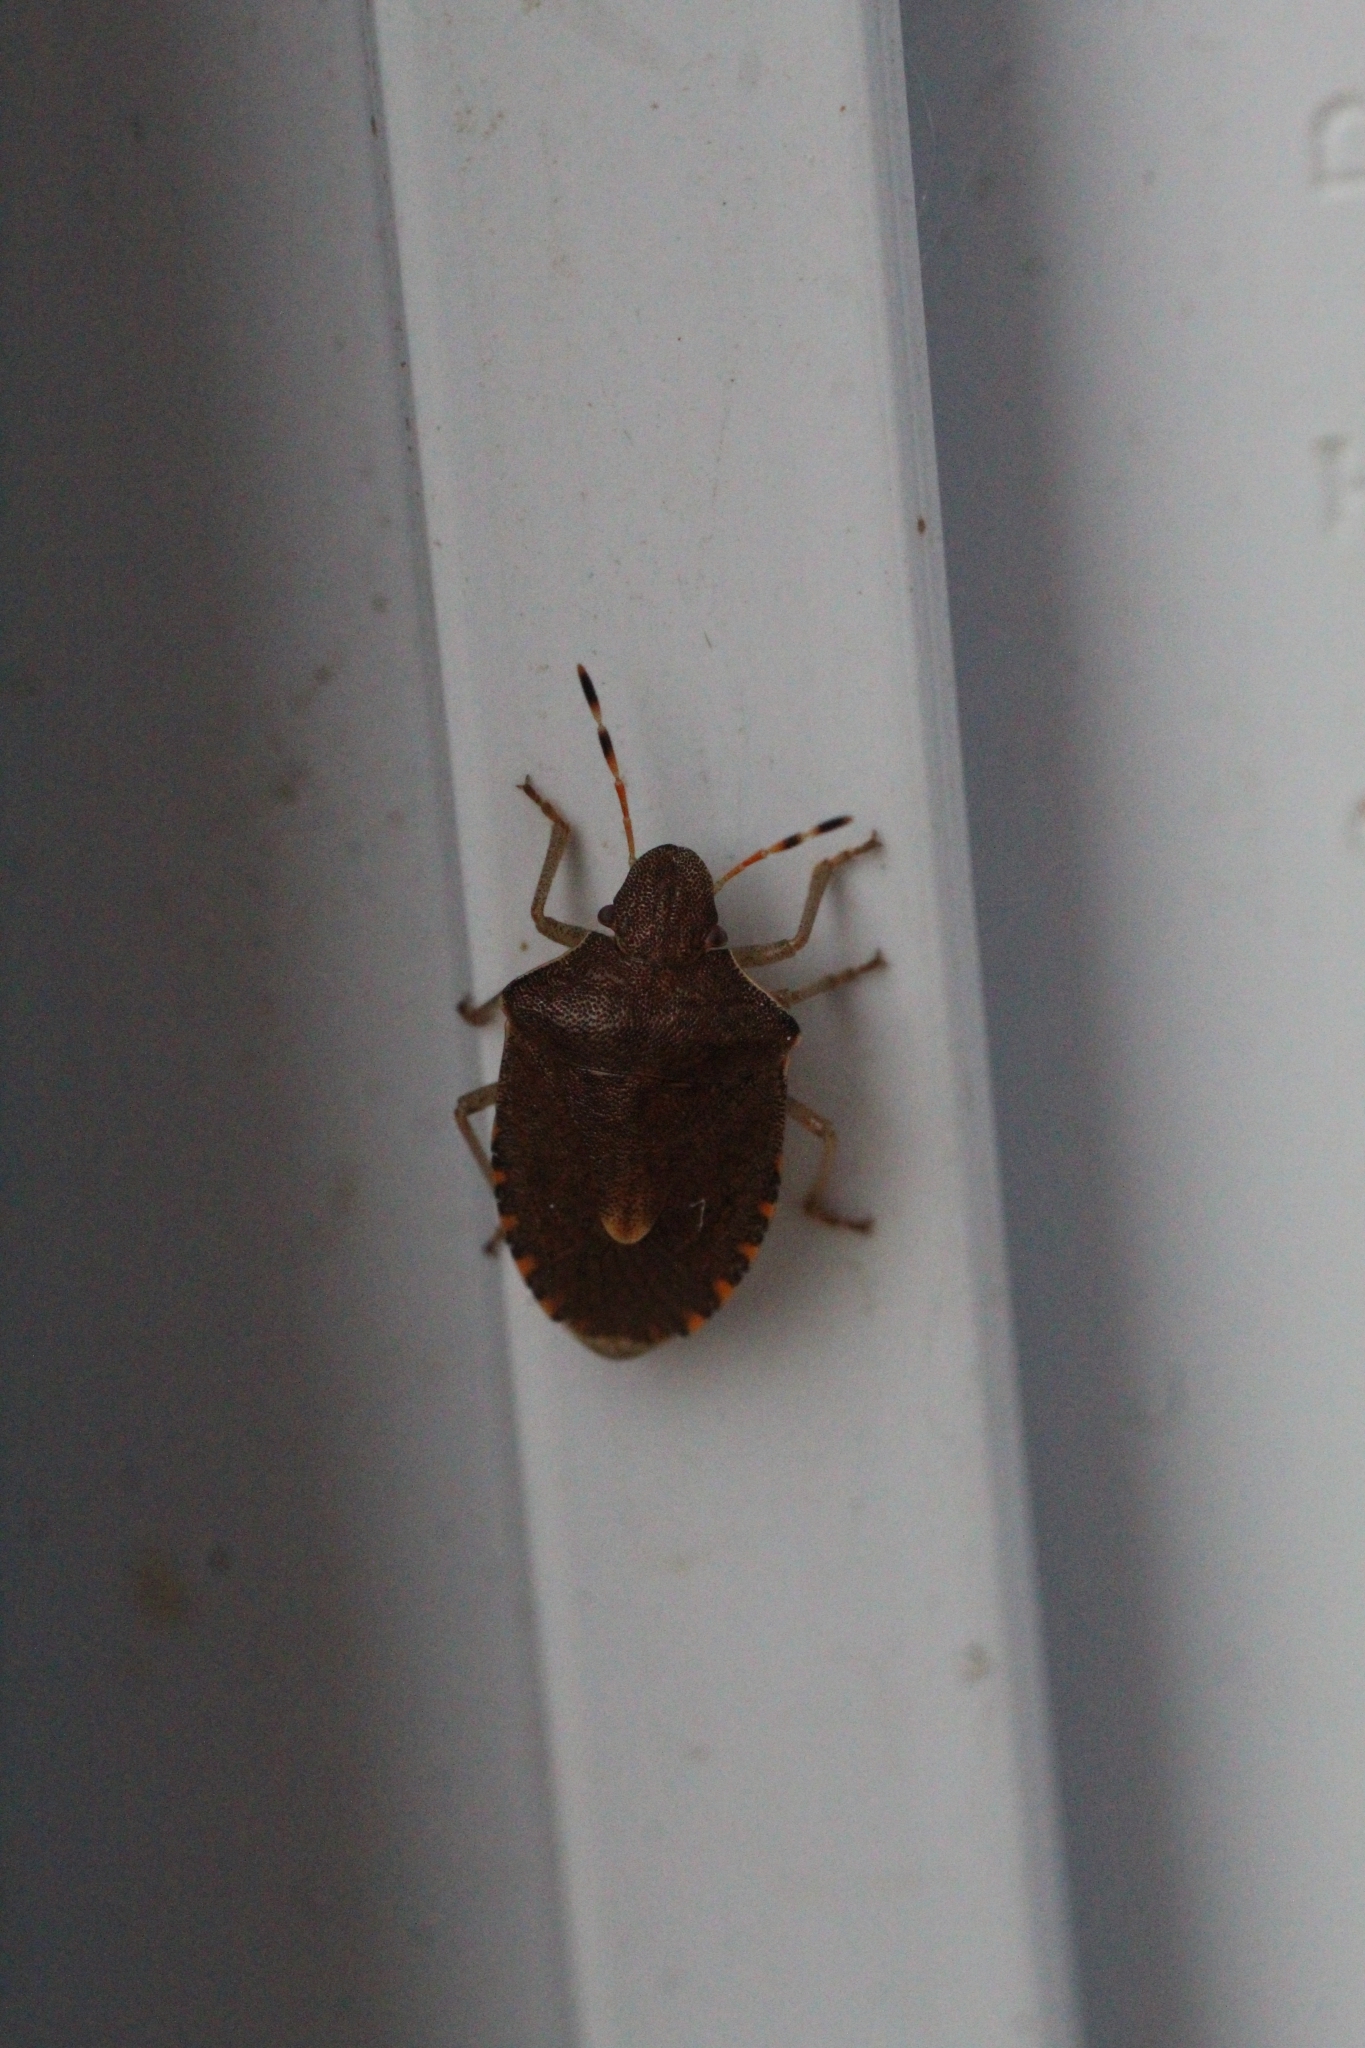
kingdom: Animalia
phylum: Arthropoda
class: Insecta
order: Hemiptera
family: Pentatomidae
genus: Holcostethus
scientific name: Holcostethus strictus
